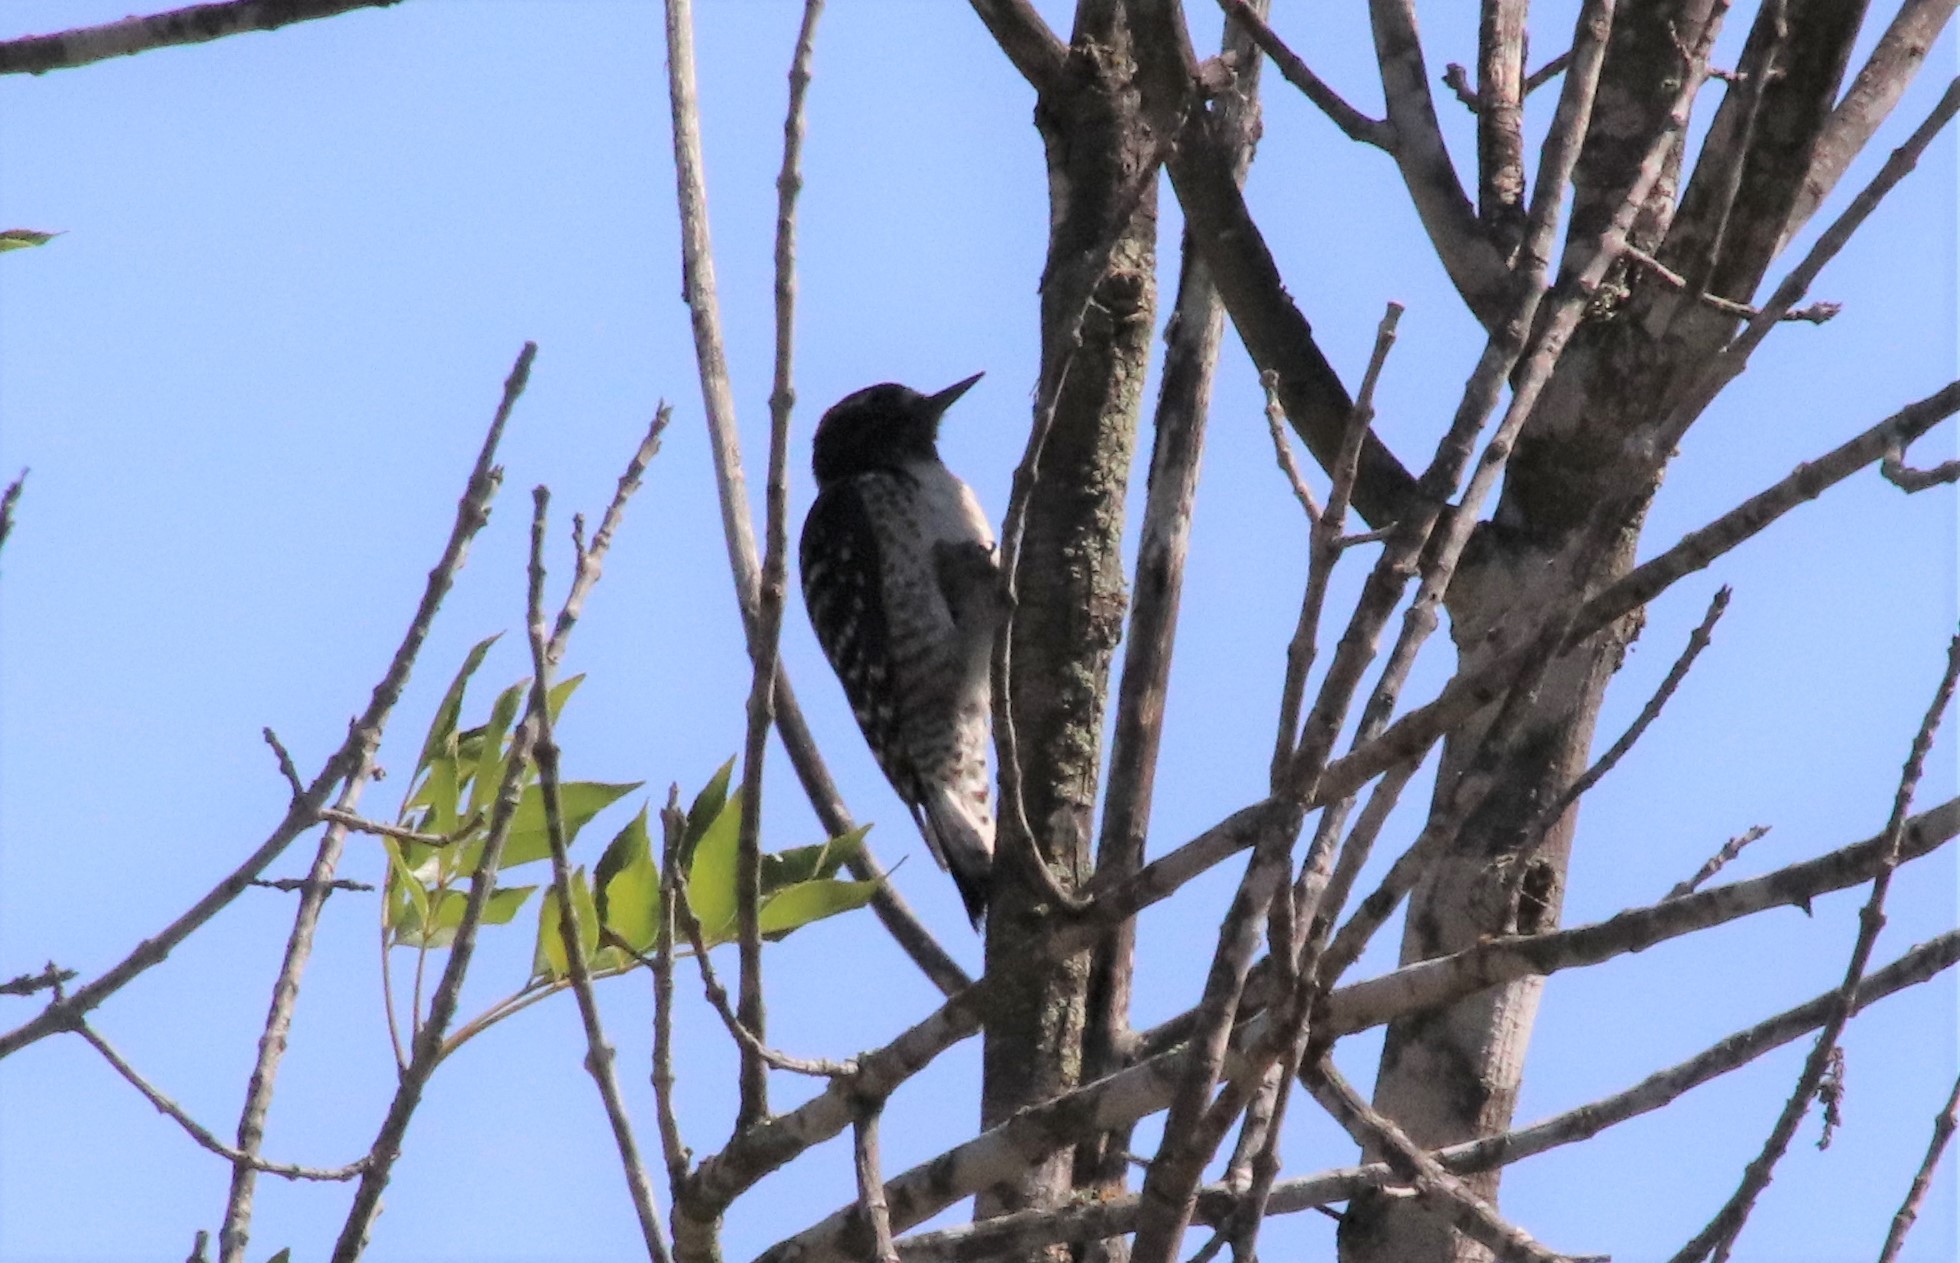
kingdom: Animalia
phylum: Chordata
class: Aves
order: Piciformes
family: Picidae
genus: Dryobates
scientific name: Dryobates nuttallii
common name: Nuttall's woodpecker
